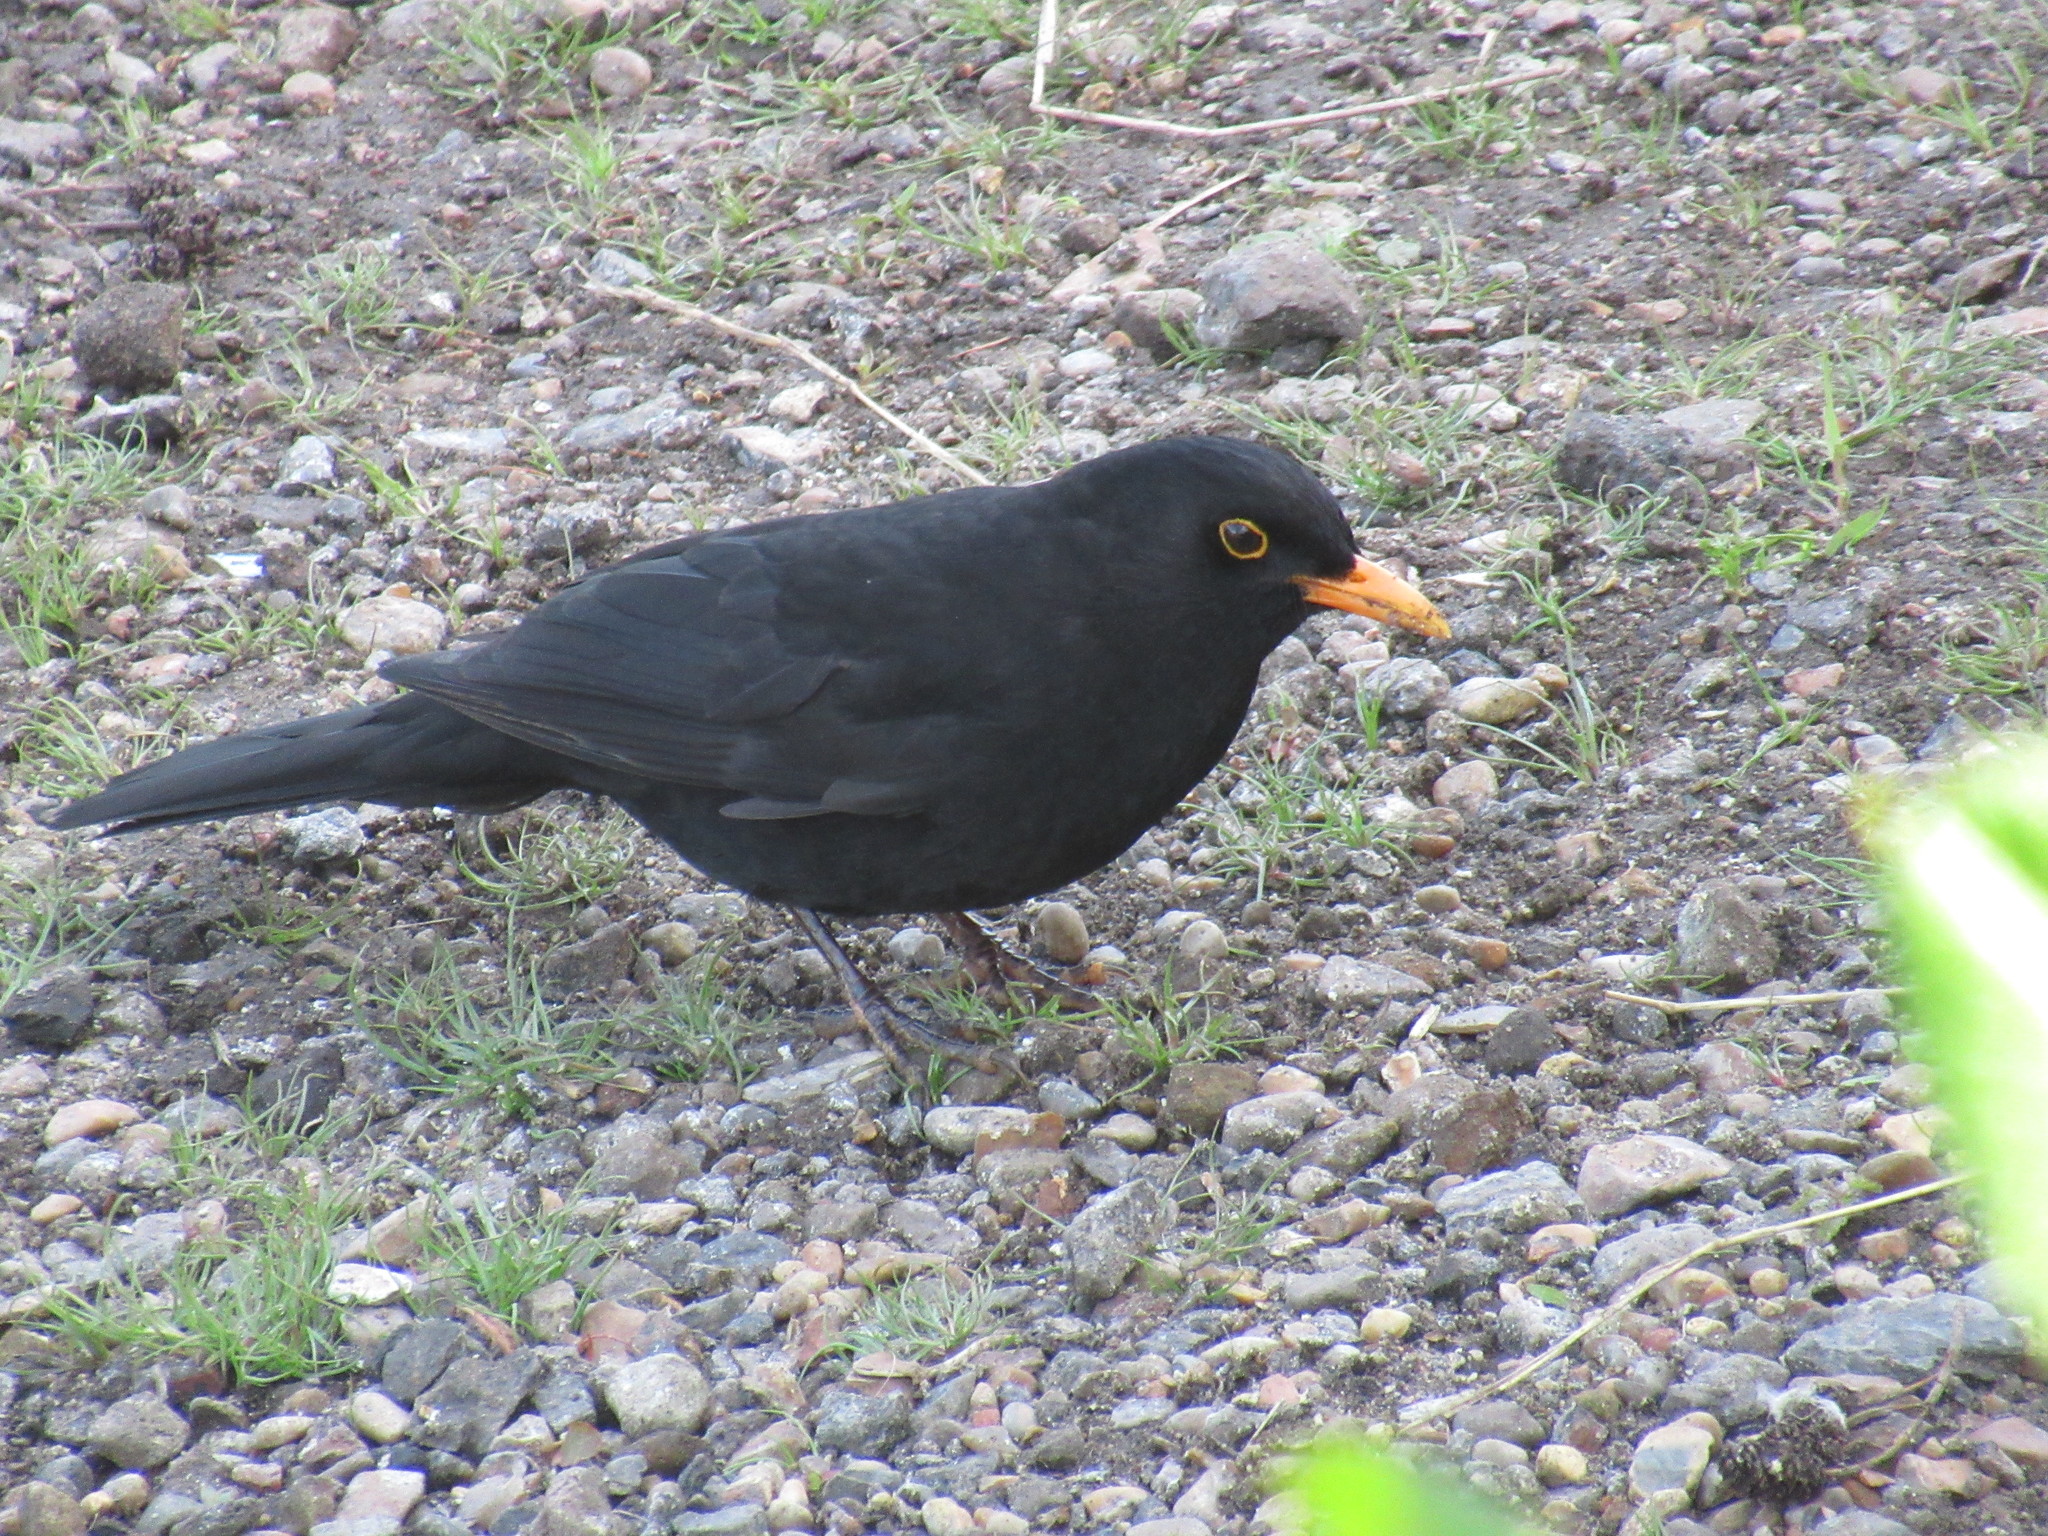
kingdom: Animalia
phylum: Chordata
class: Aves
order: Passeriformes
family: Turdidae
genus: Turdus
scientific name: Turdus merula
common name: Common blackbird
